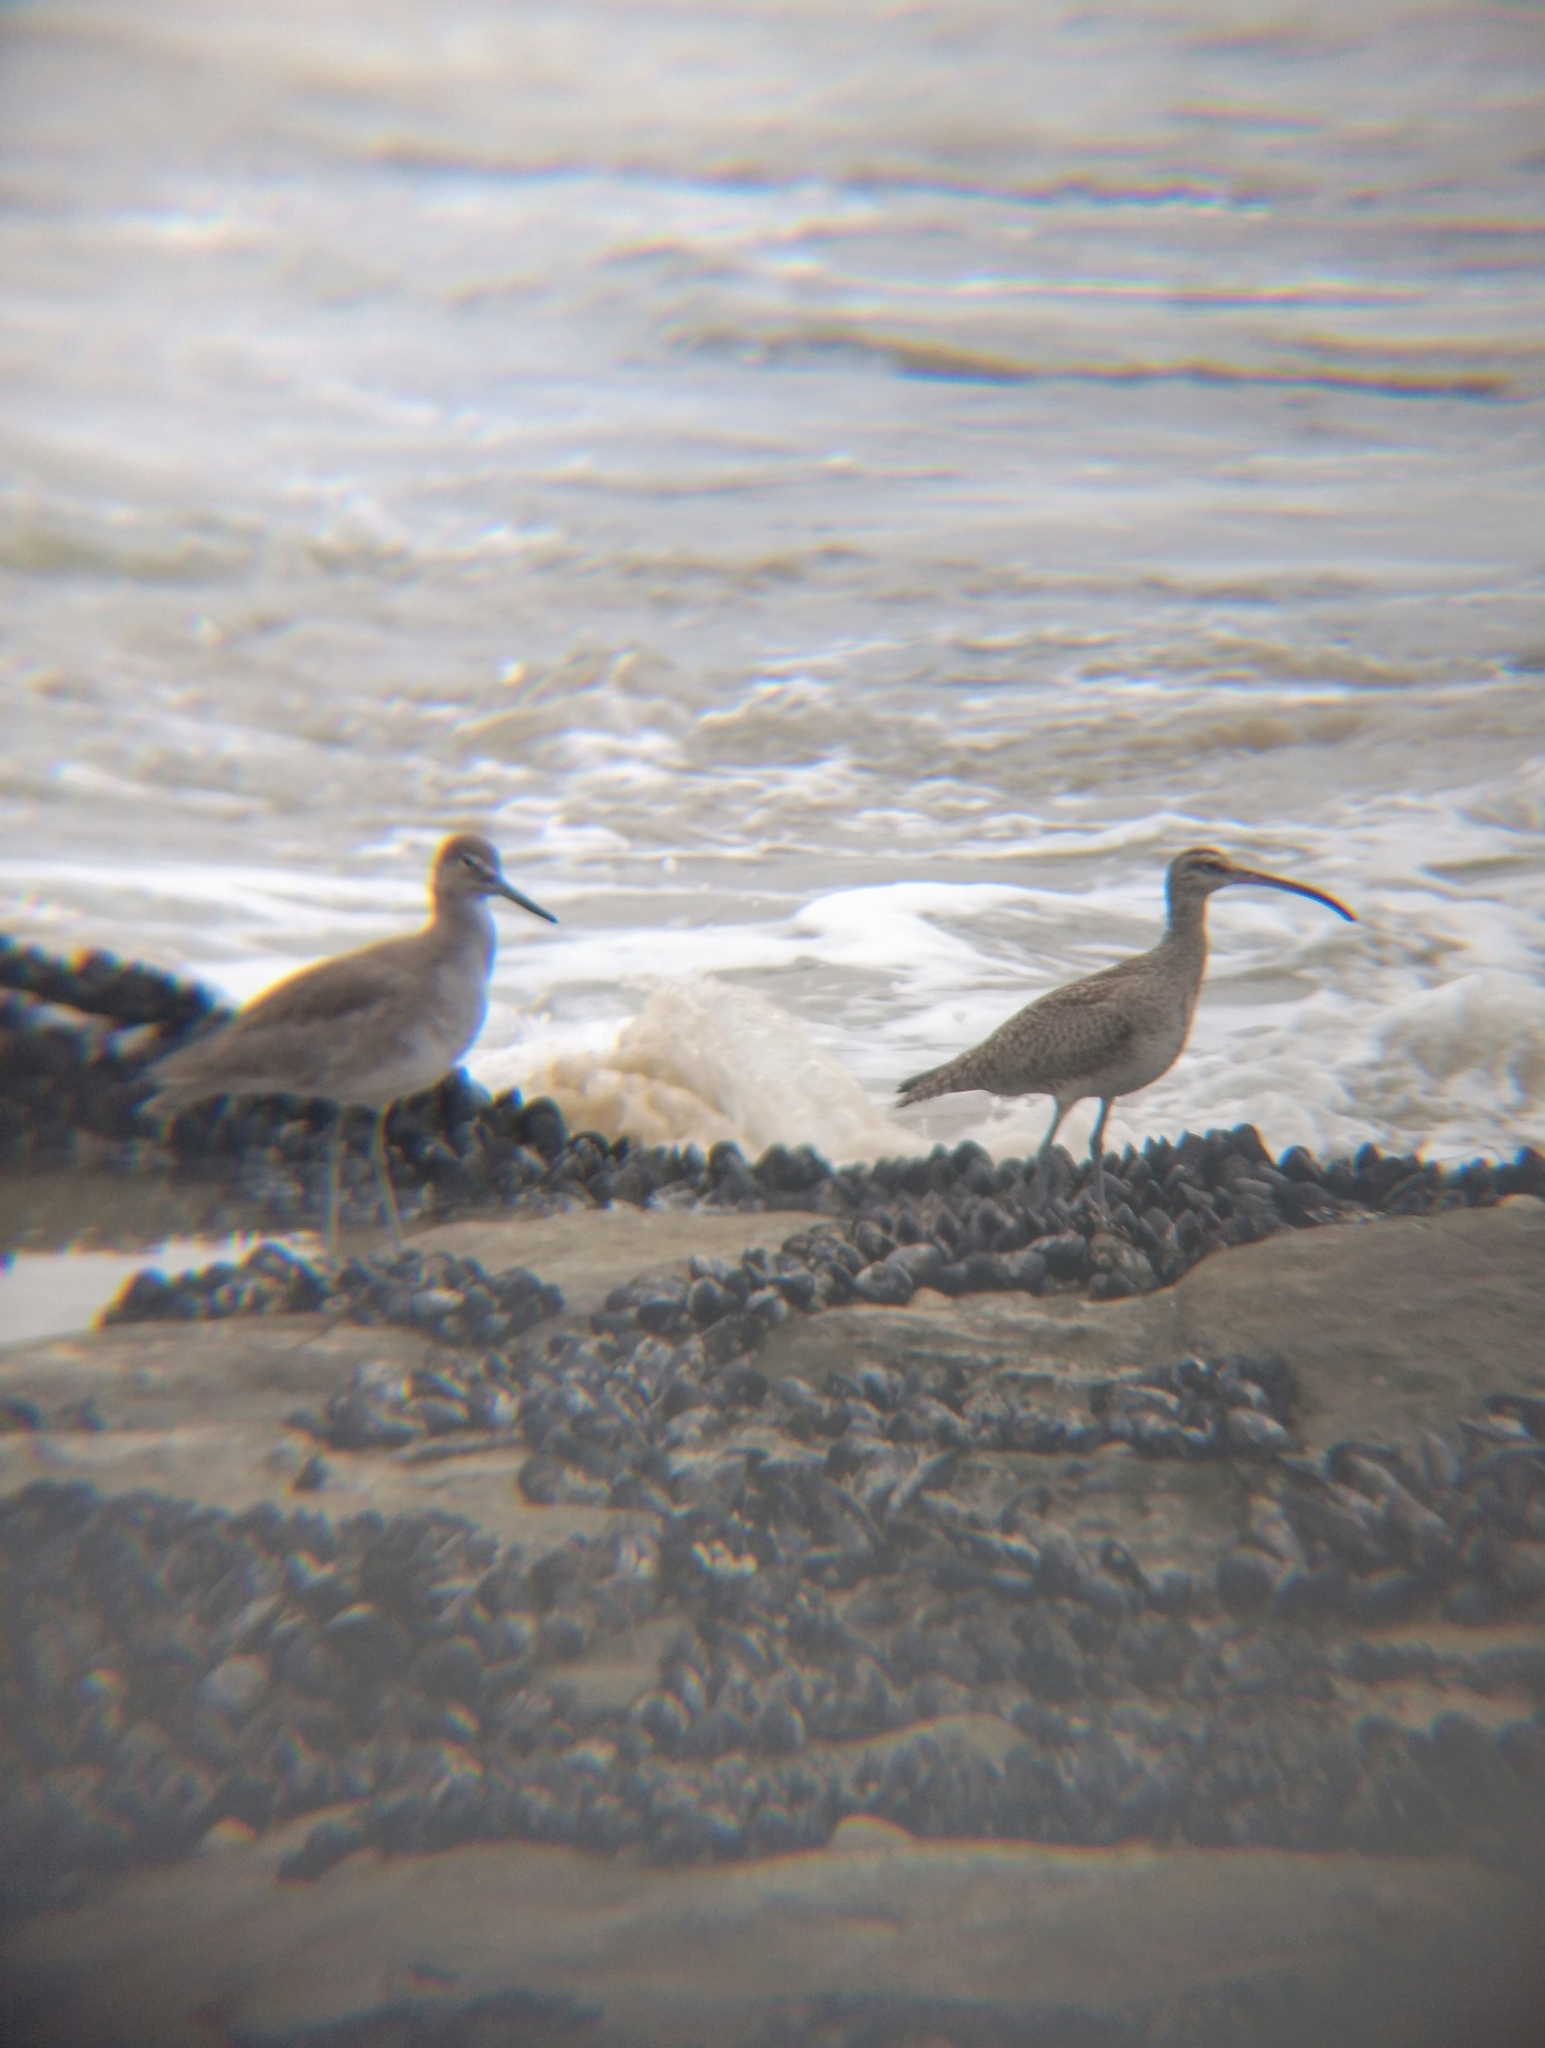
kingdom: Animalia
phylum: Chordata
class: Aves
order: Charadriiformes
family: Scolopacidae
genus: Tringa
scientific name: Tringa semipalmata
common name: Willet
